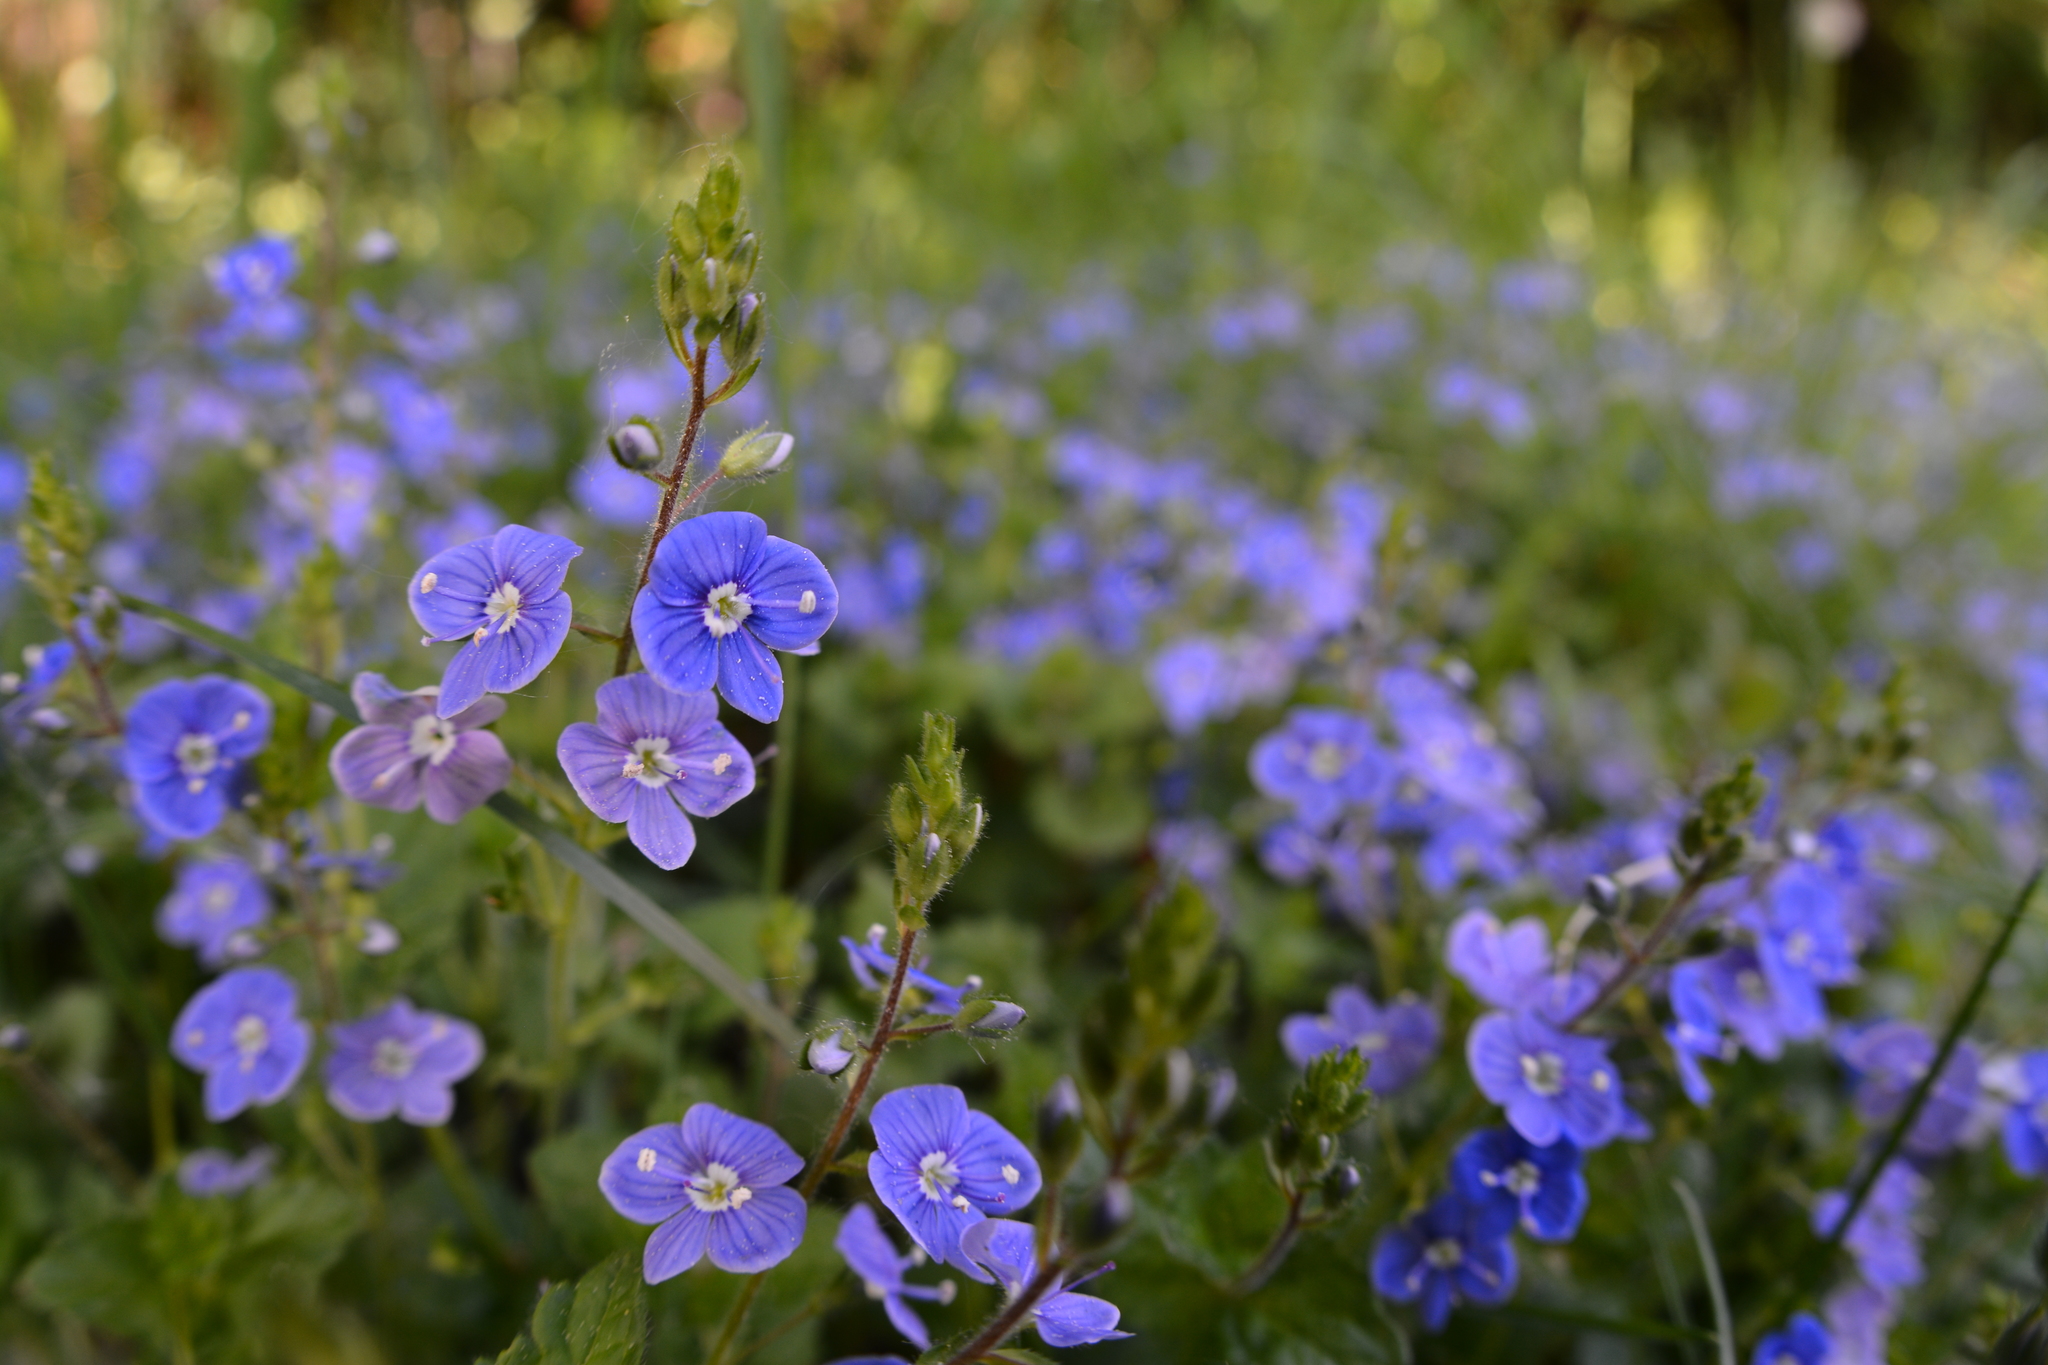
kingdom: Plantae
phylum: Tracheophyta
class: Magnoliopsida
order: Lamiales
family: Plantaginaceae
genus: Veronica
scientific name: Veronica chamaedrys
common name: Germander speedwell
